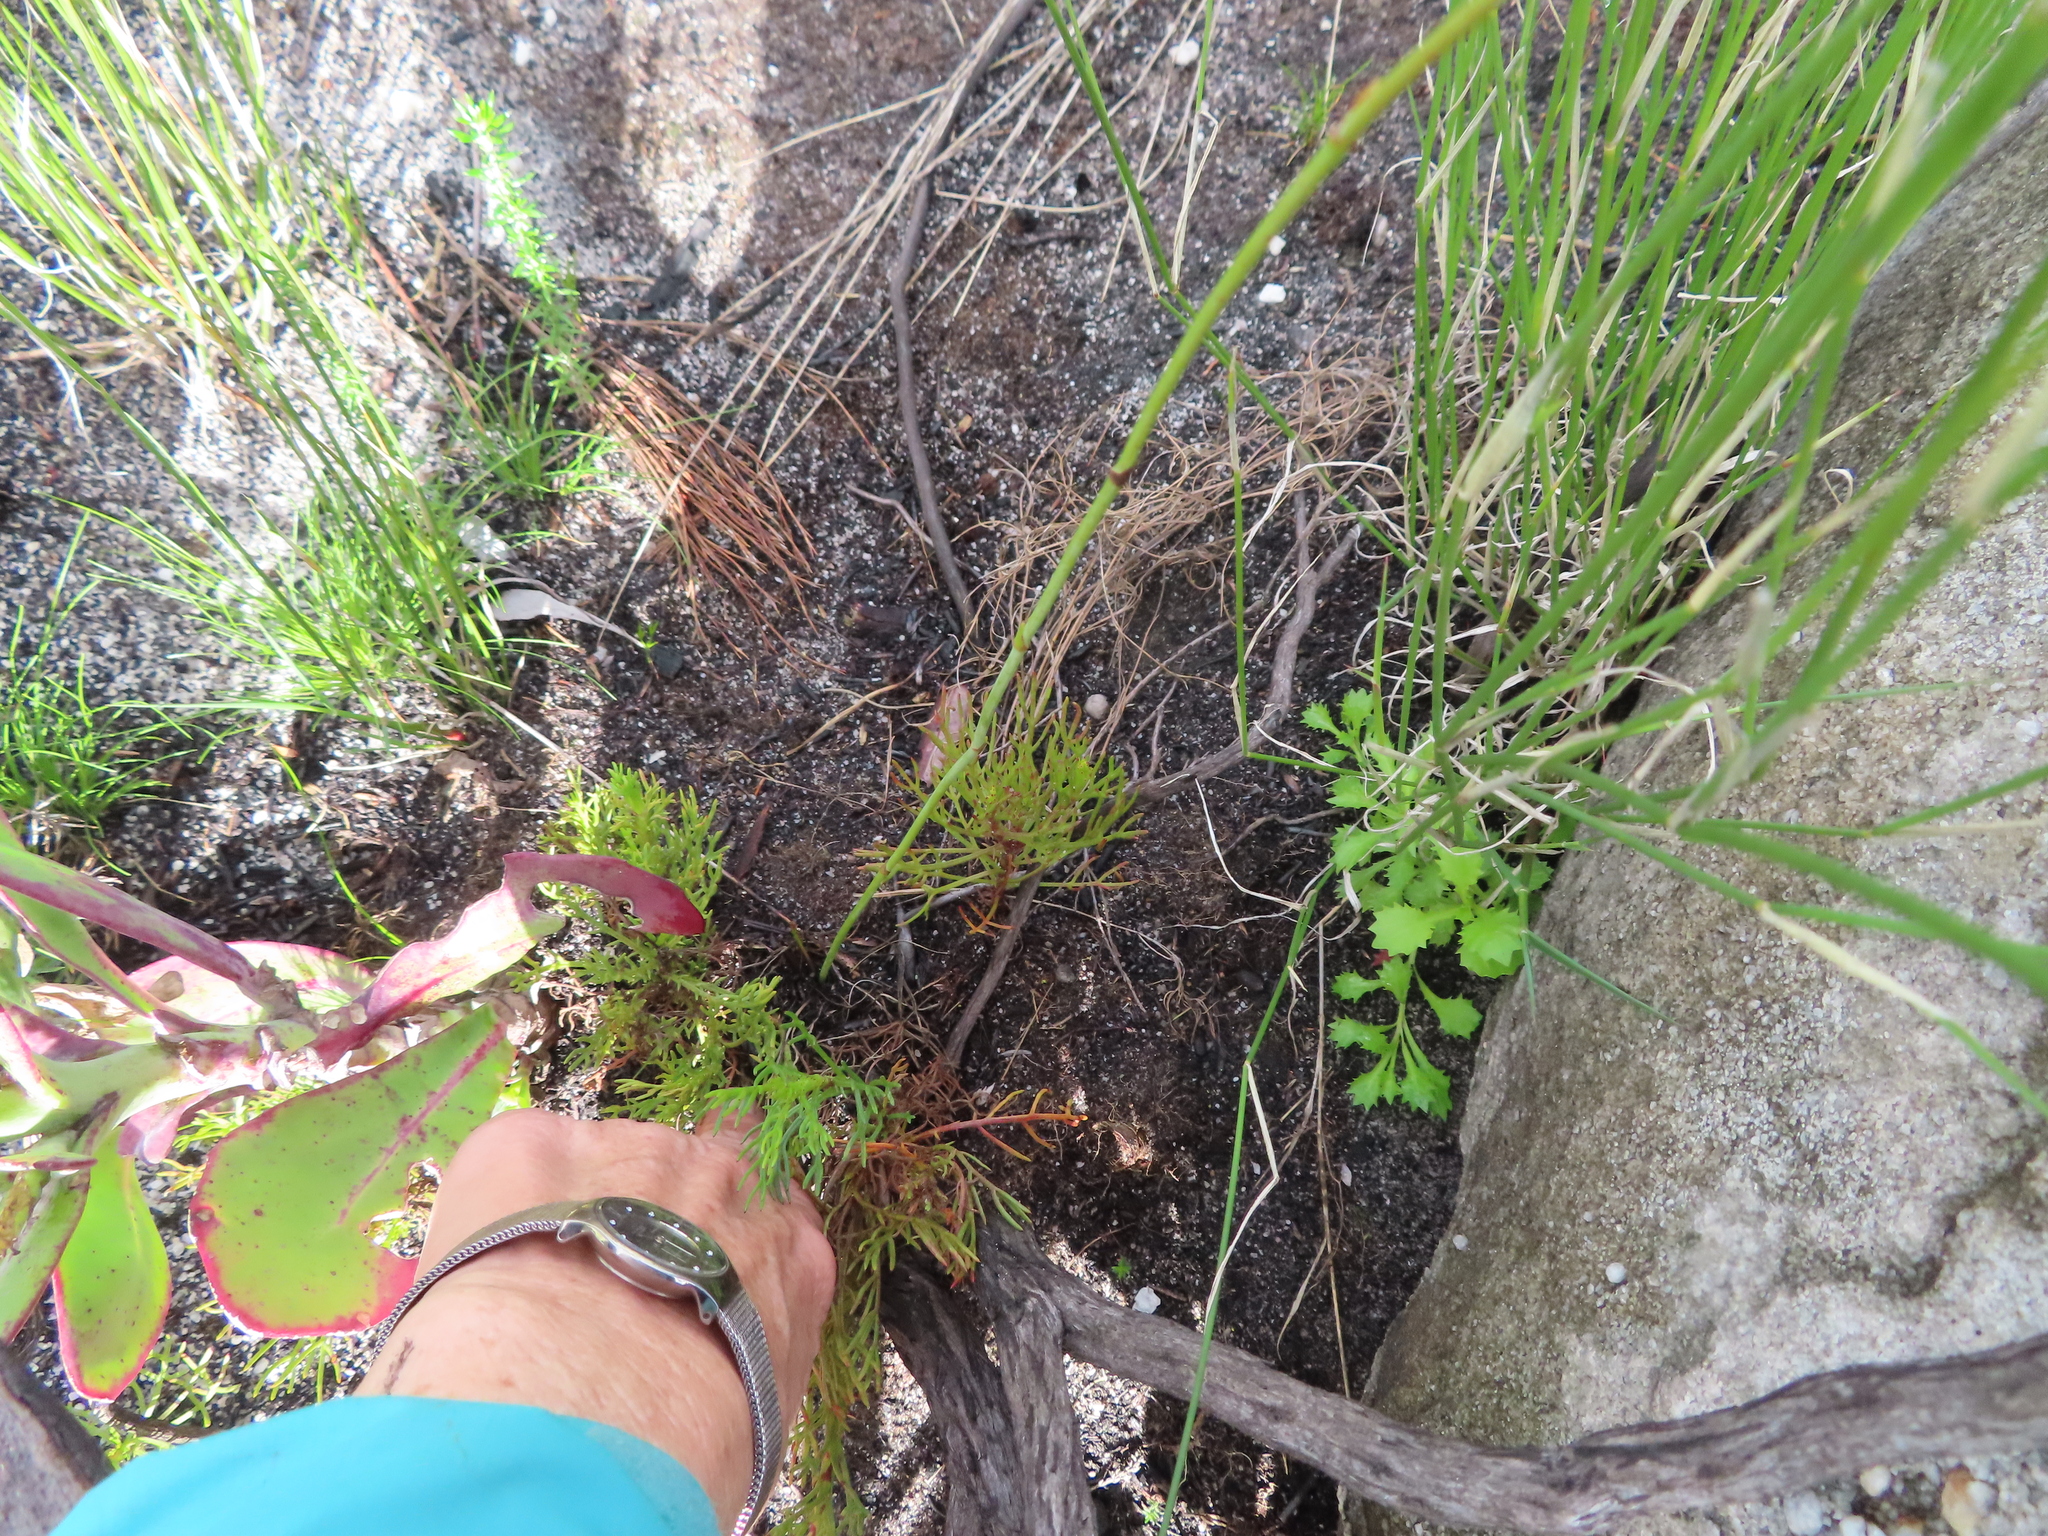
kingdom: Plantae
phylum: Tracheophyta
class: Magnoliopsida
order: Apiales
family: Apiaceae
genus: Annesorhiza
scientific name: Annesorhiza triternata
